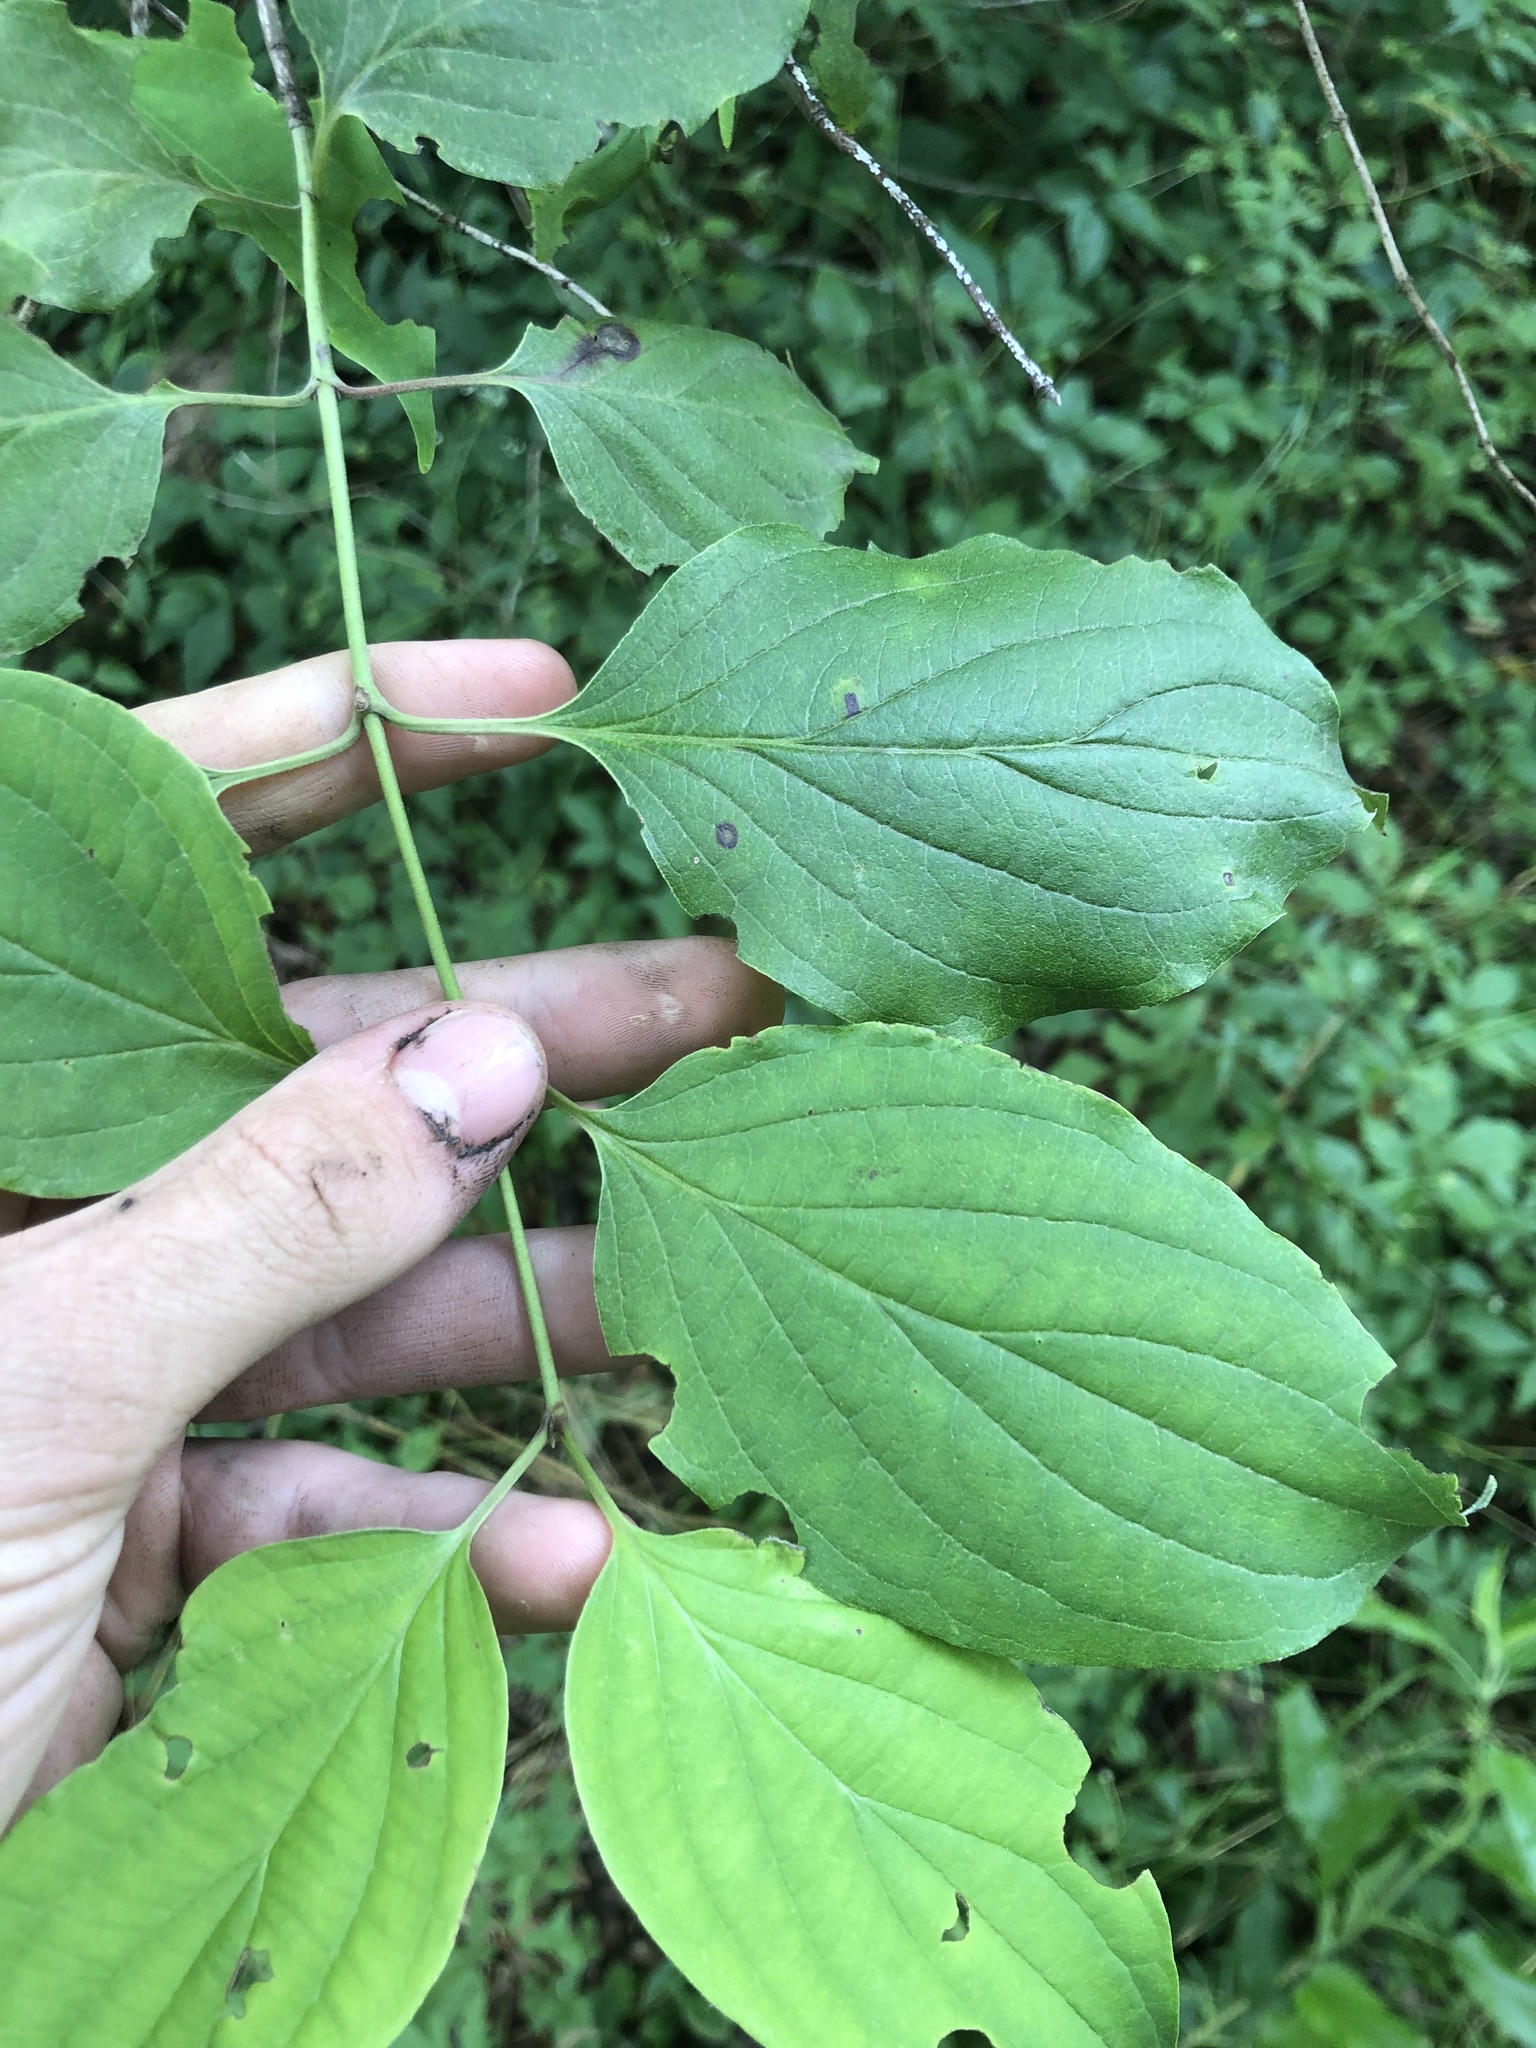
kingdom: Plantae
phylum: Tracheophyta
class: Magnoliopsida
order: Cornales
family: Cornaceae
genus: Cornus
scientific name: Cornus foemina
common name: Swamp dogwood
